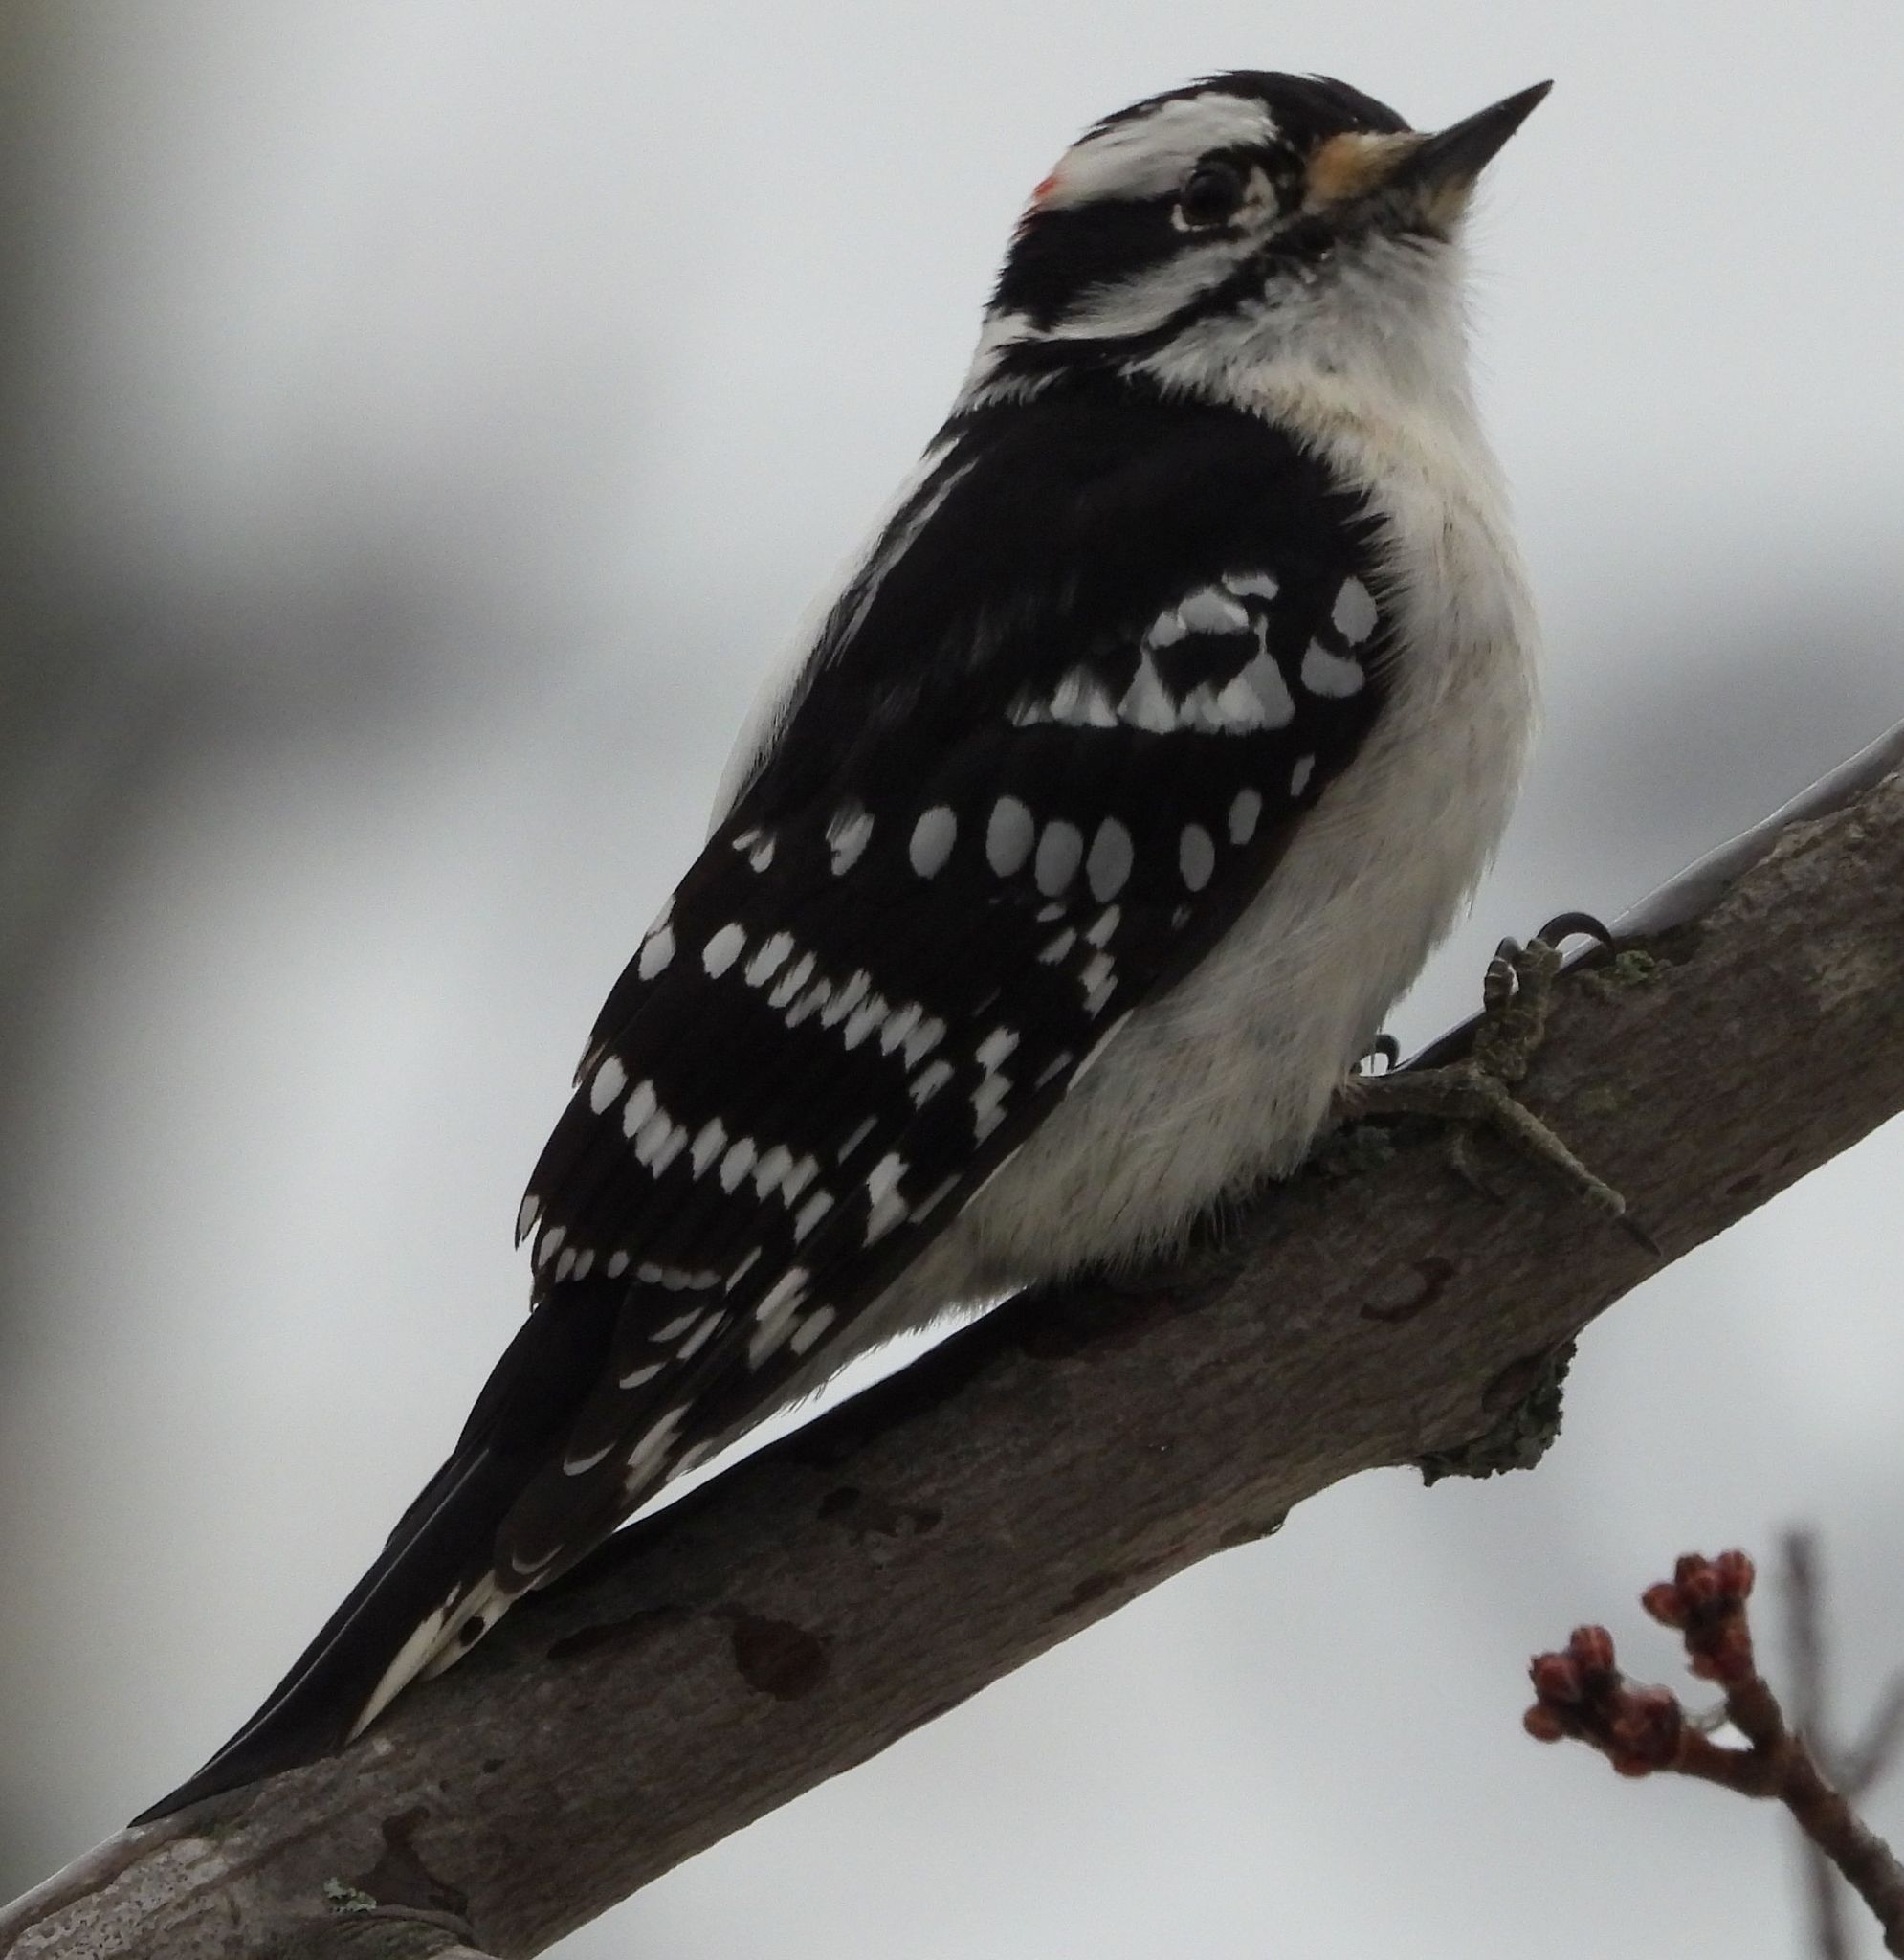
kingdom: Animalia
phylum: Chordata
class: Aves
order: Piciformes
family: Picidae
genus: Dryobates
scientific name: Dryobates pubescens
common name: Downy woodpecker
